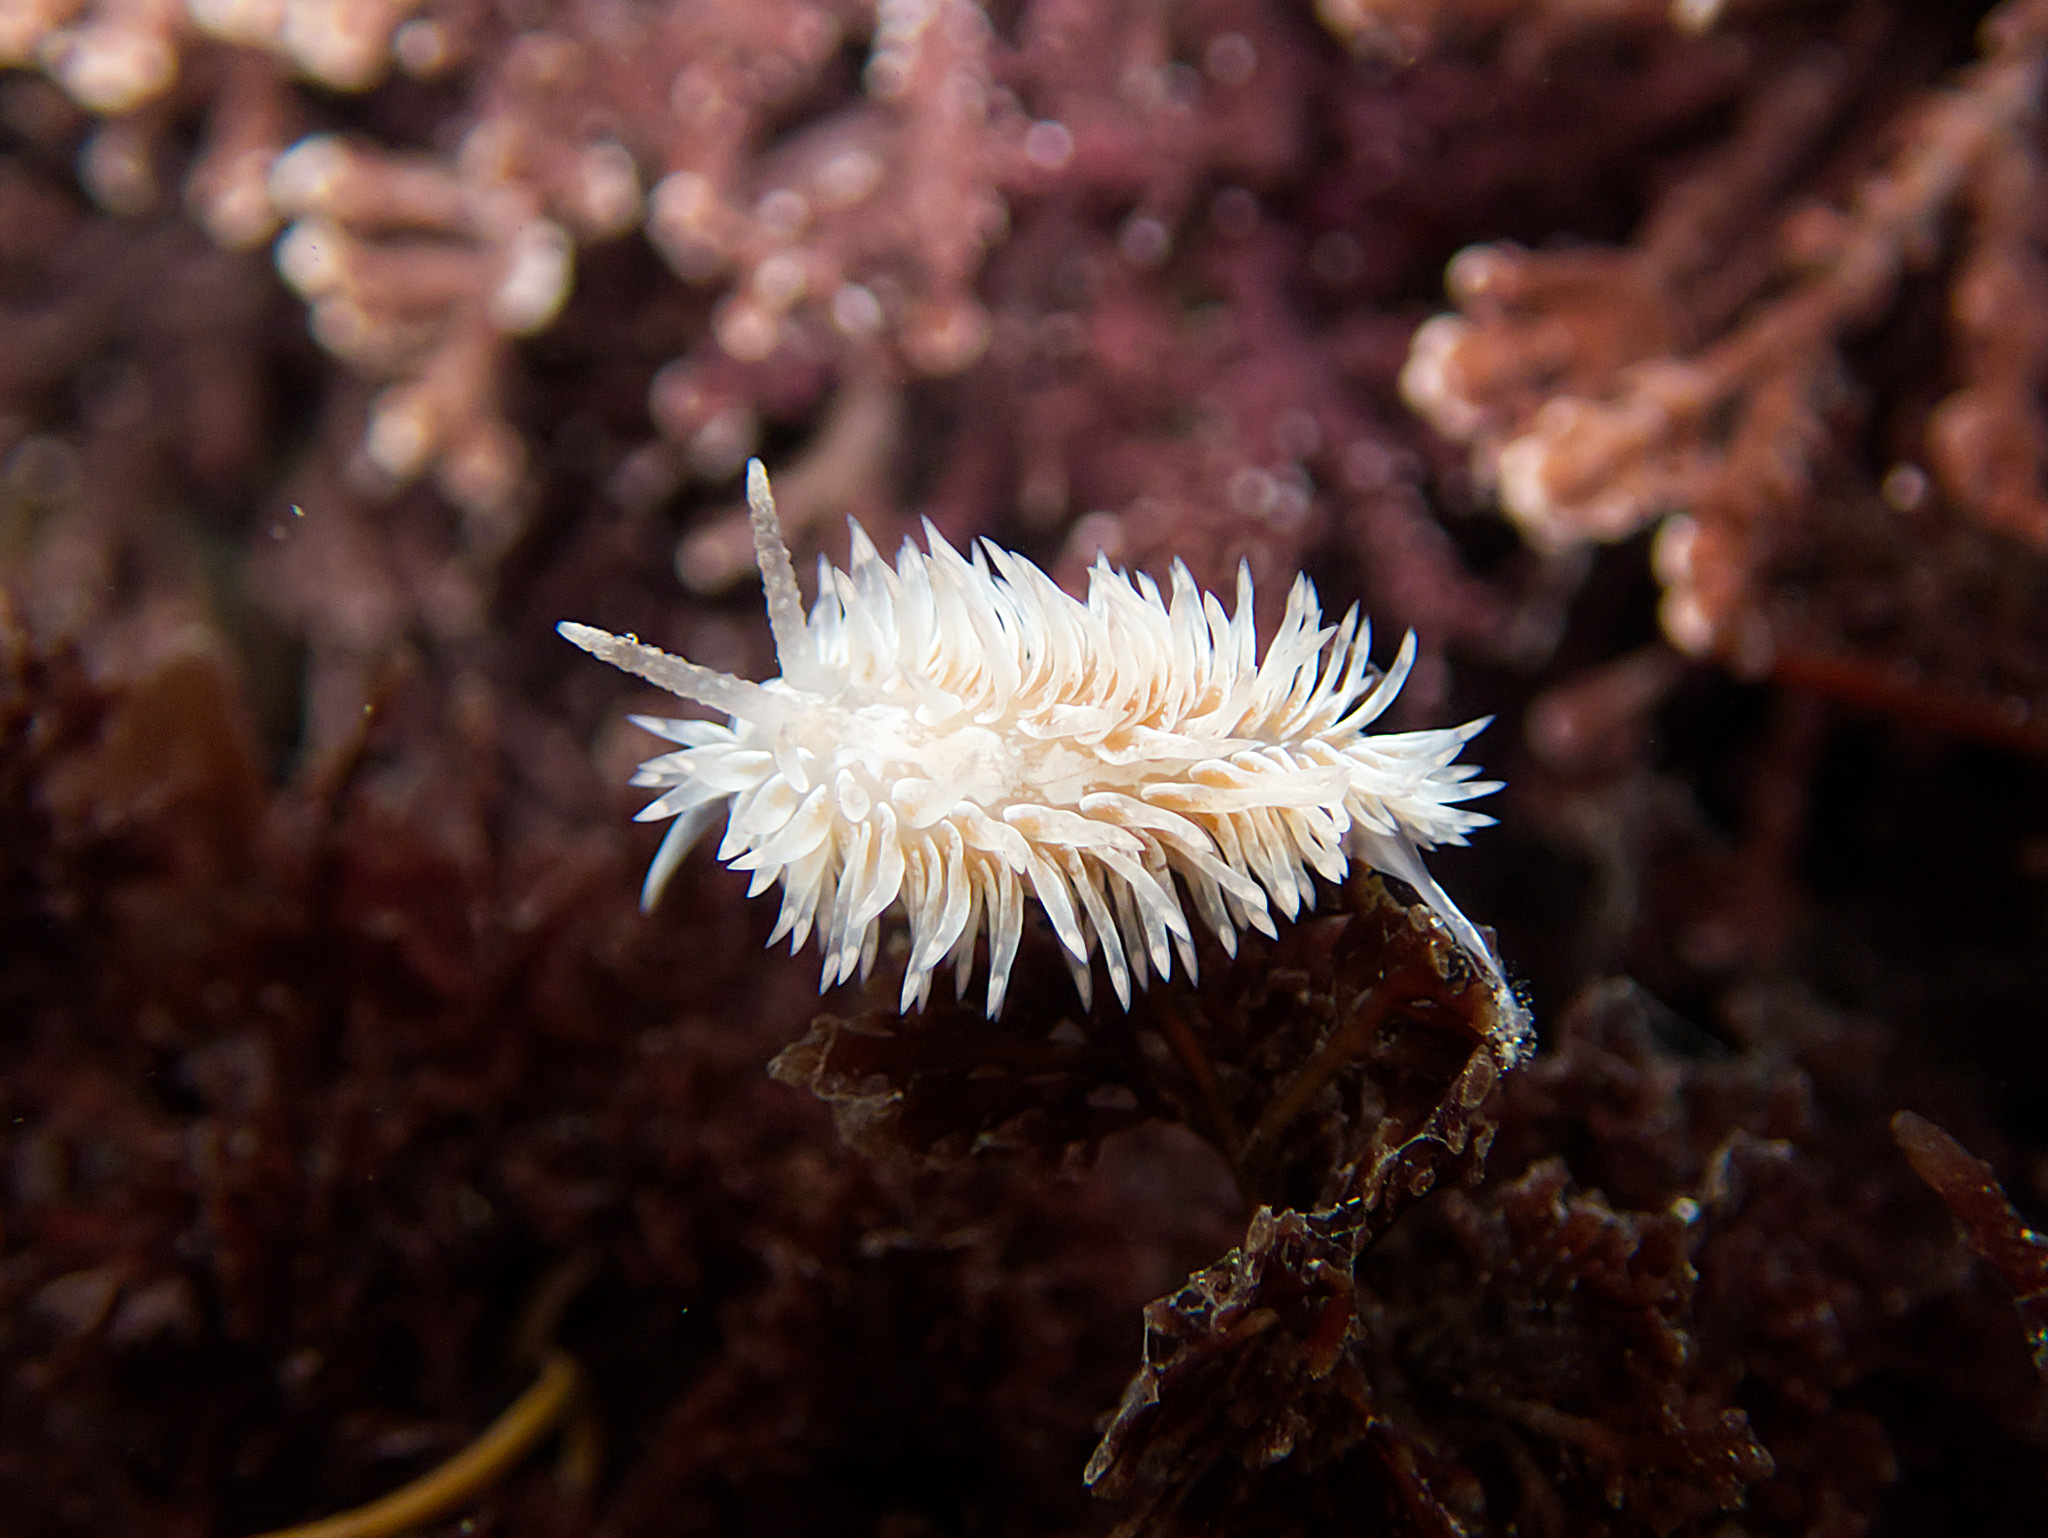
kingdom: Animalia
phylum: Mollusca
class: Gastropoda
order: Nudibranchia
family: Aeolidiidae
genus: Aeolidia
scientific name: Aeolidia loui
